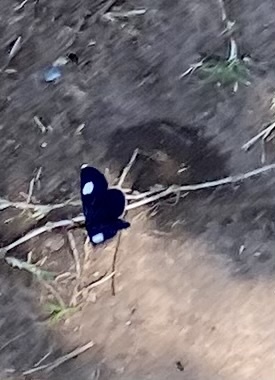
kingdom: Animalia
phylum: Arthropoda
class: Insecta
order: Lepidoptera
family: Geometridae
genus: Melanchroia
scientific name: Melanchroia aterea
